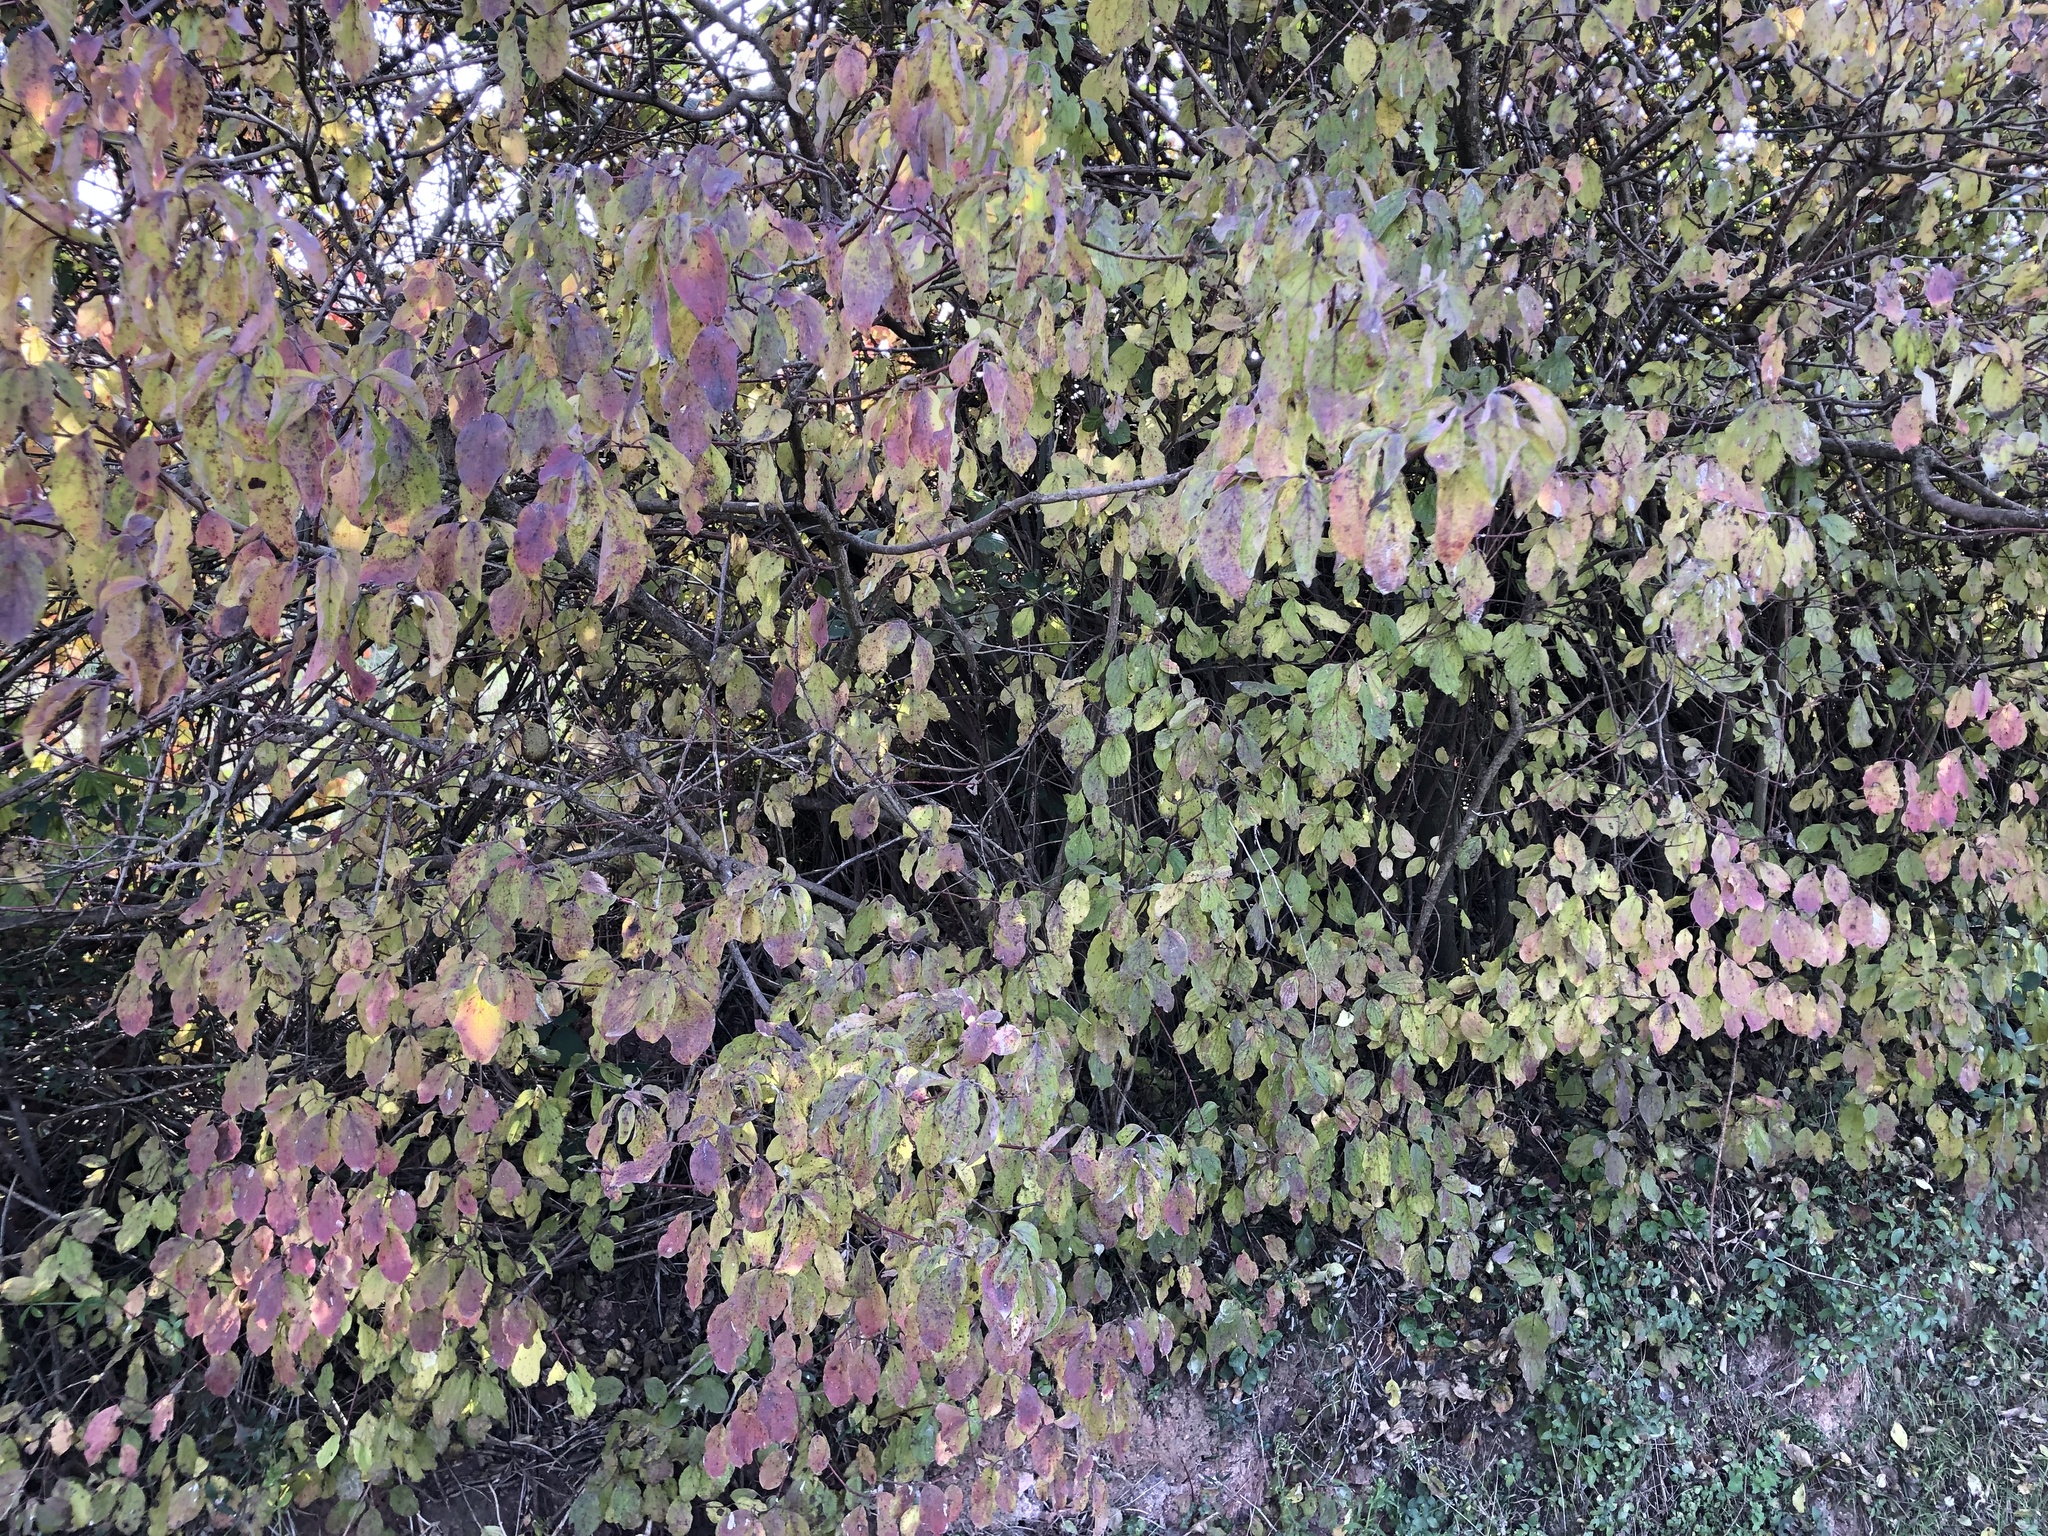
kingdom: Plantae
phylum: Tracheophyta
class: Magnoliopsida
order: Cornales
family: Cornaceae
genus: Cornus
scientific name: Cornus sanguinea
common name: Dogwood
